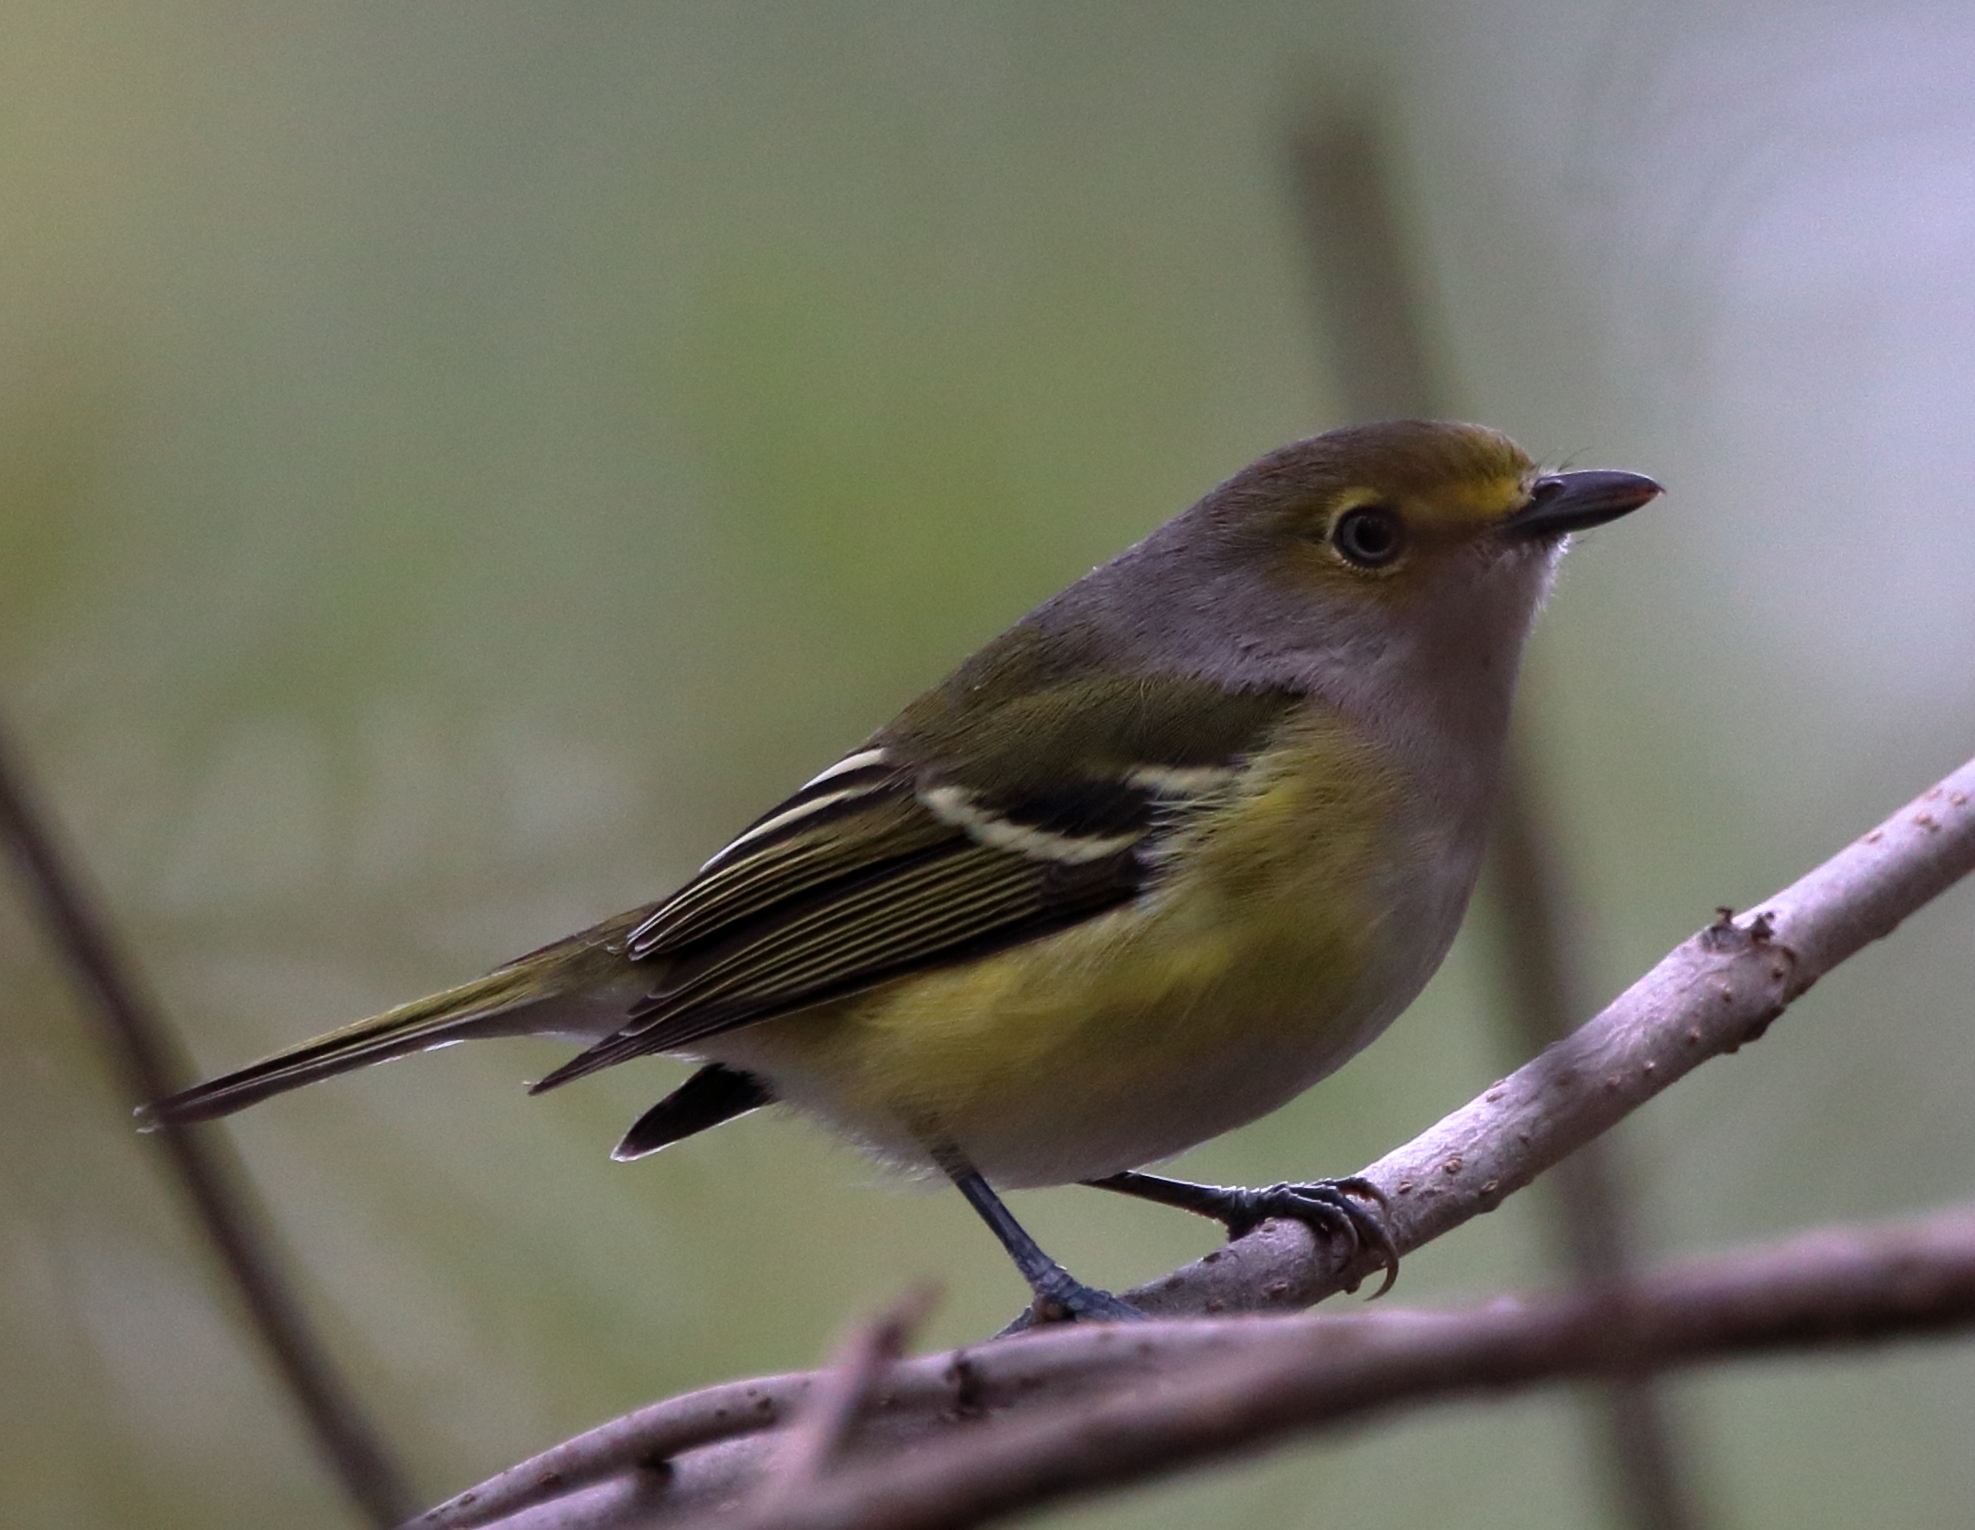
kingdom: Animalia
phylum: Chordata
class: Aves
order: Passeriformes
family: Vireonidae
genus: Vireo
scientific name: Vireo griseus
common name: White-eyed vireo
